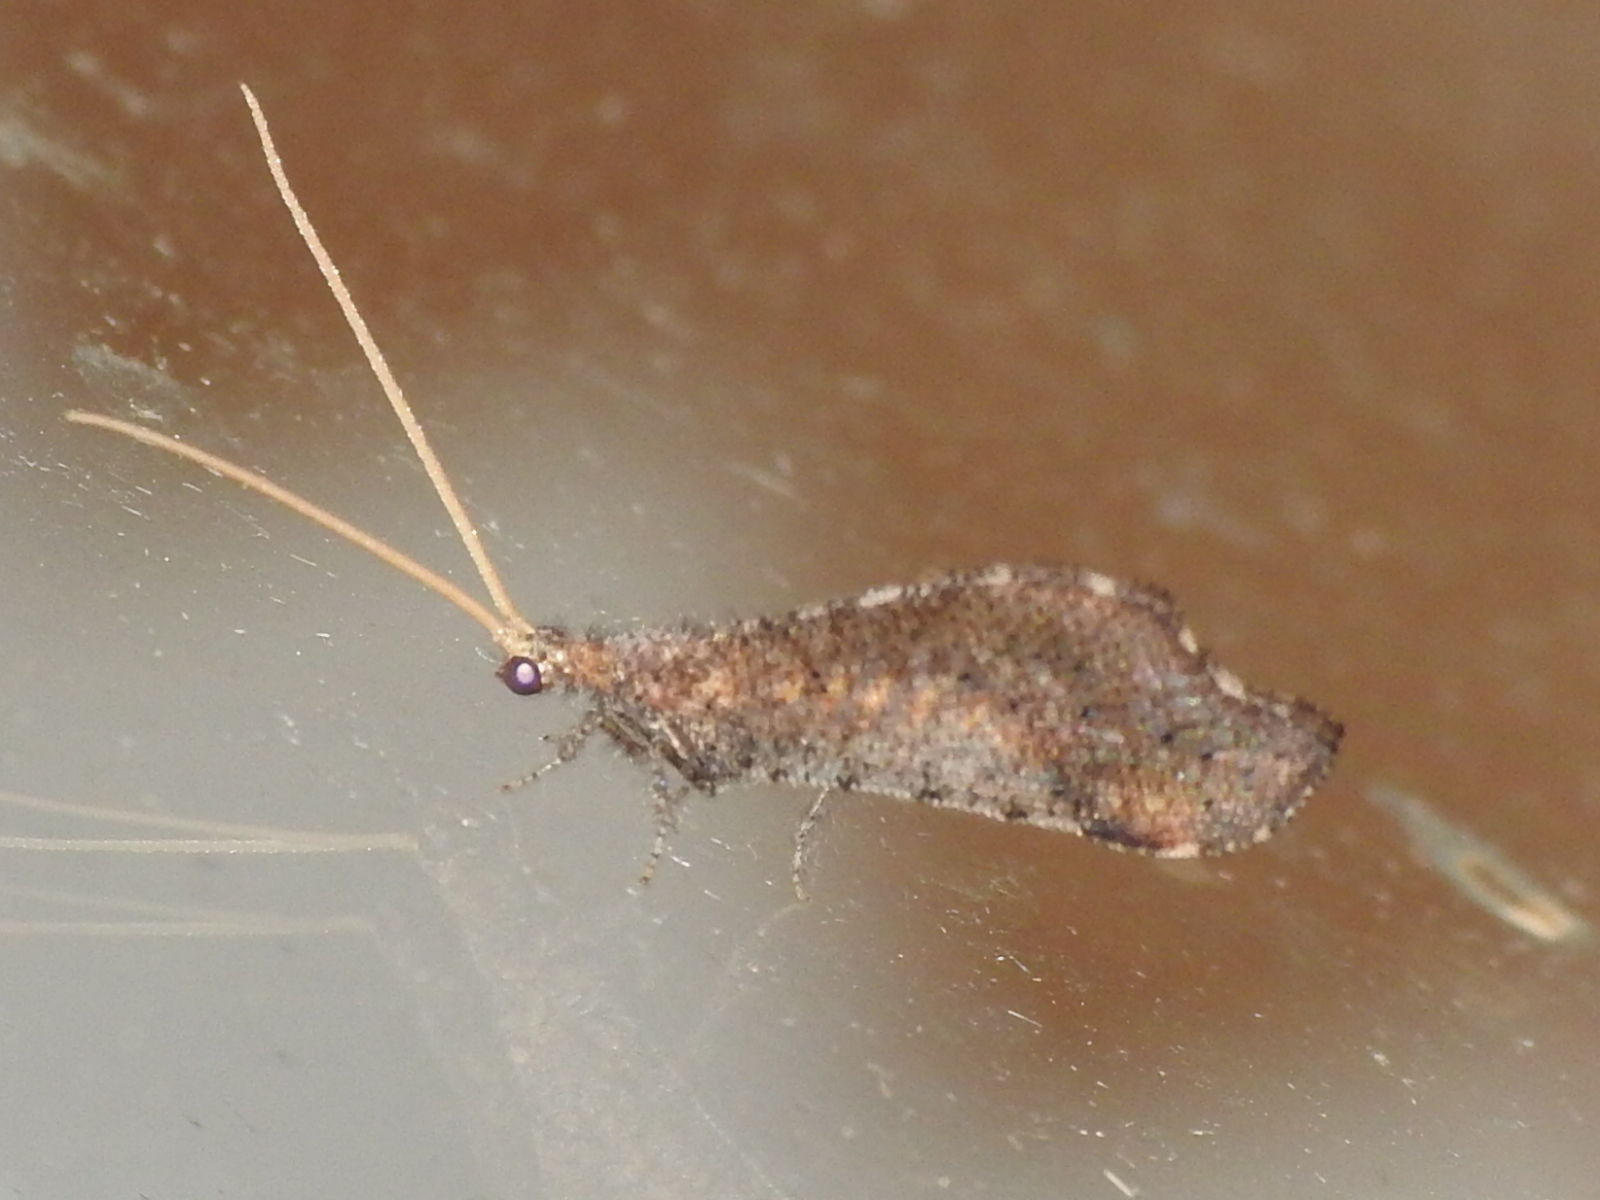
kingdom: Animalia
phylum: Arthropoda
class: Insecta
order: Neuroptera
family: Berothidae
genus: Lomamyia
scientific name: Lomamyia squamosa
